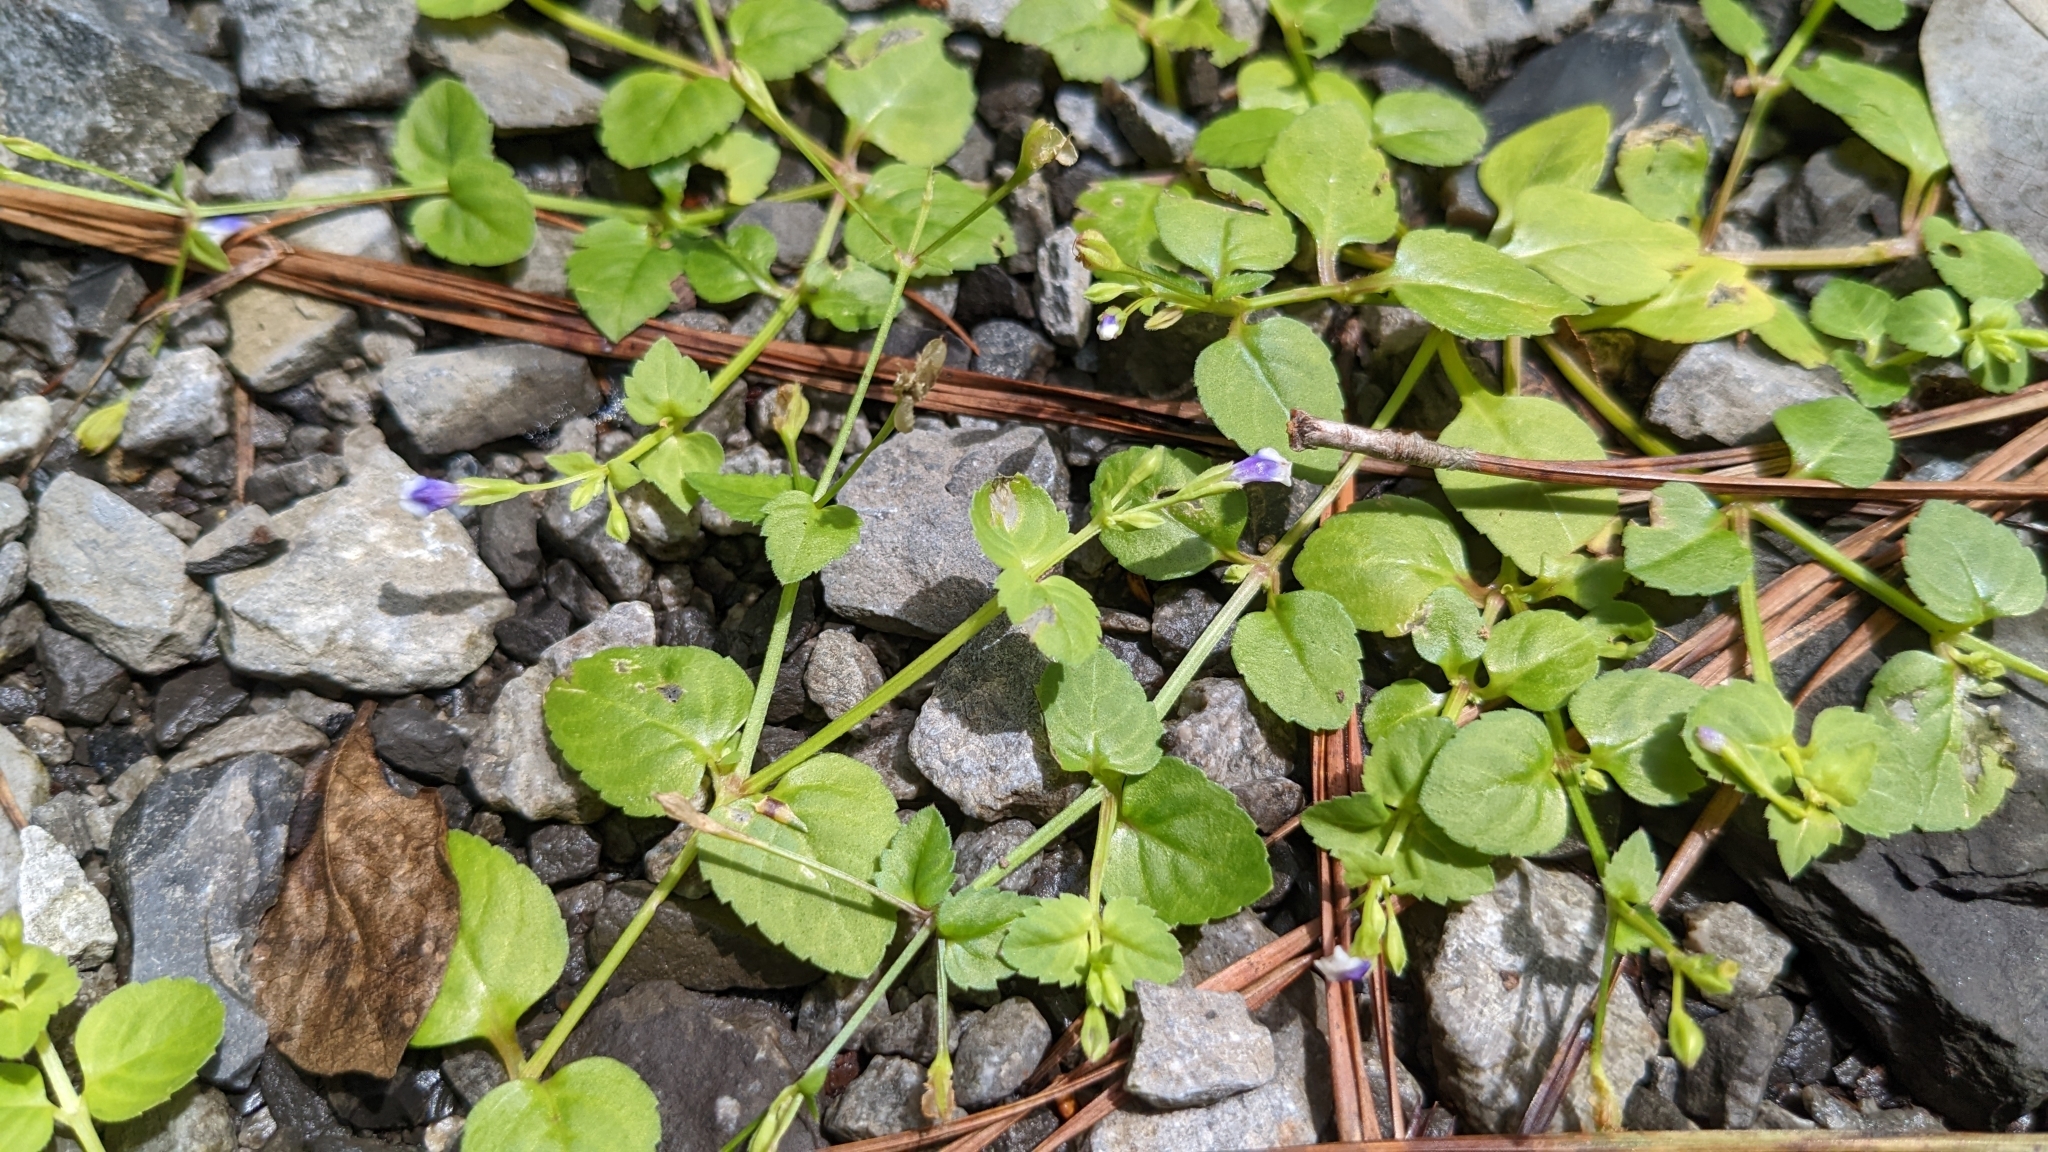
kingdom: Plantae
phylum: Tracheophyta
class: Magnoliopsida
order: Lamiales
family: Linderniaceae
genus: Torenia
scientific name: Torenia crustacea
